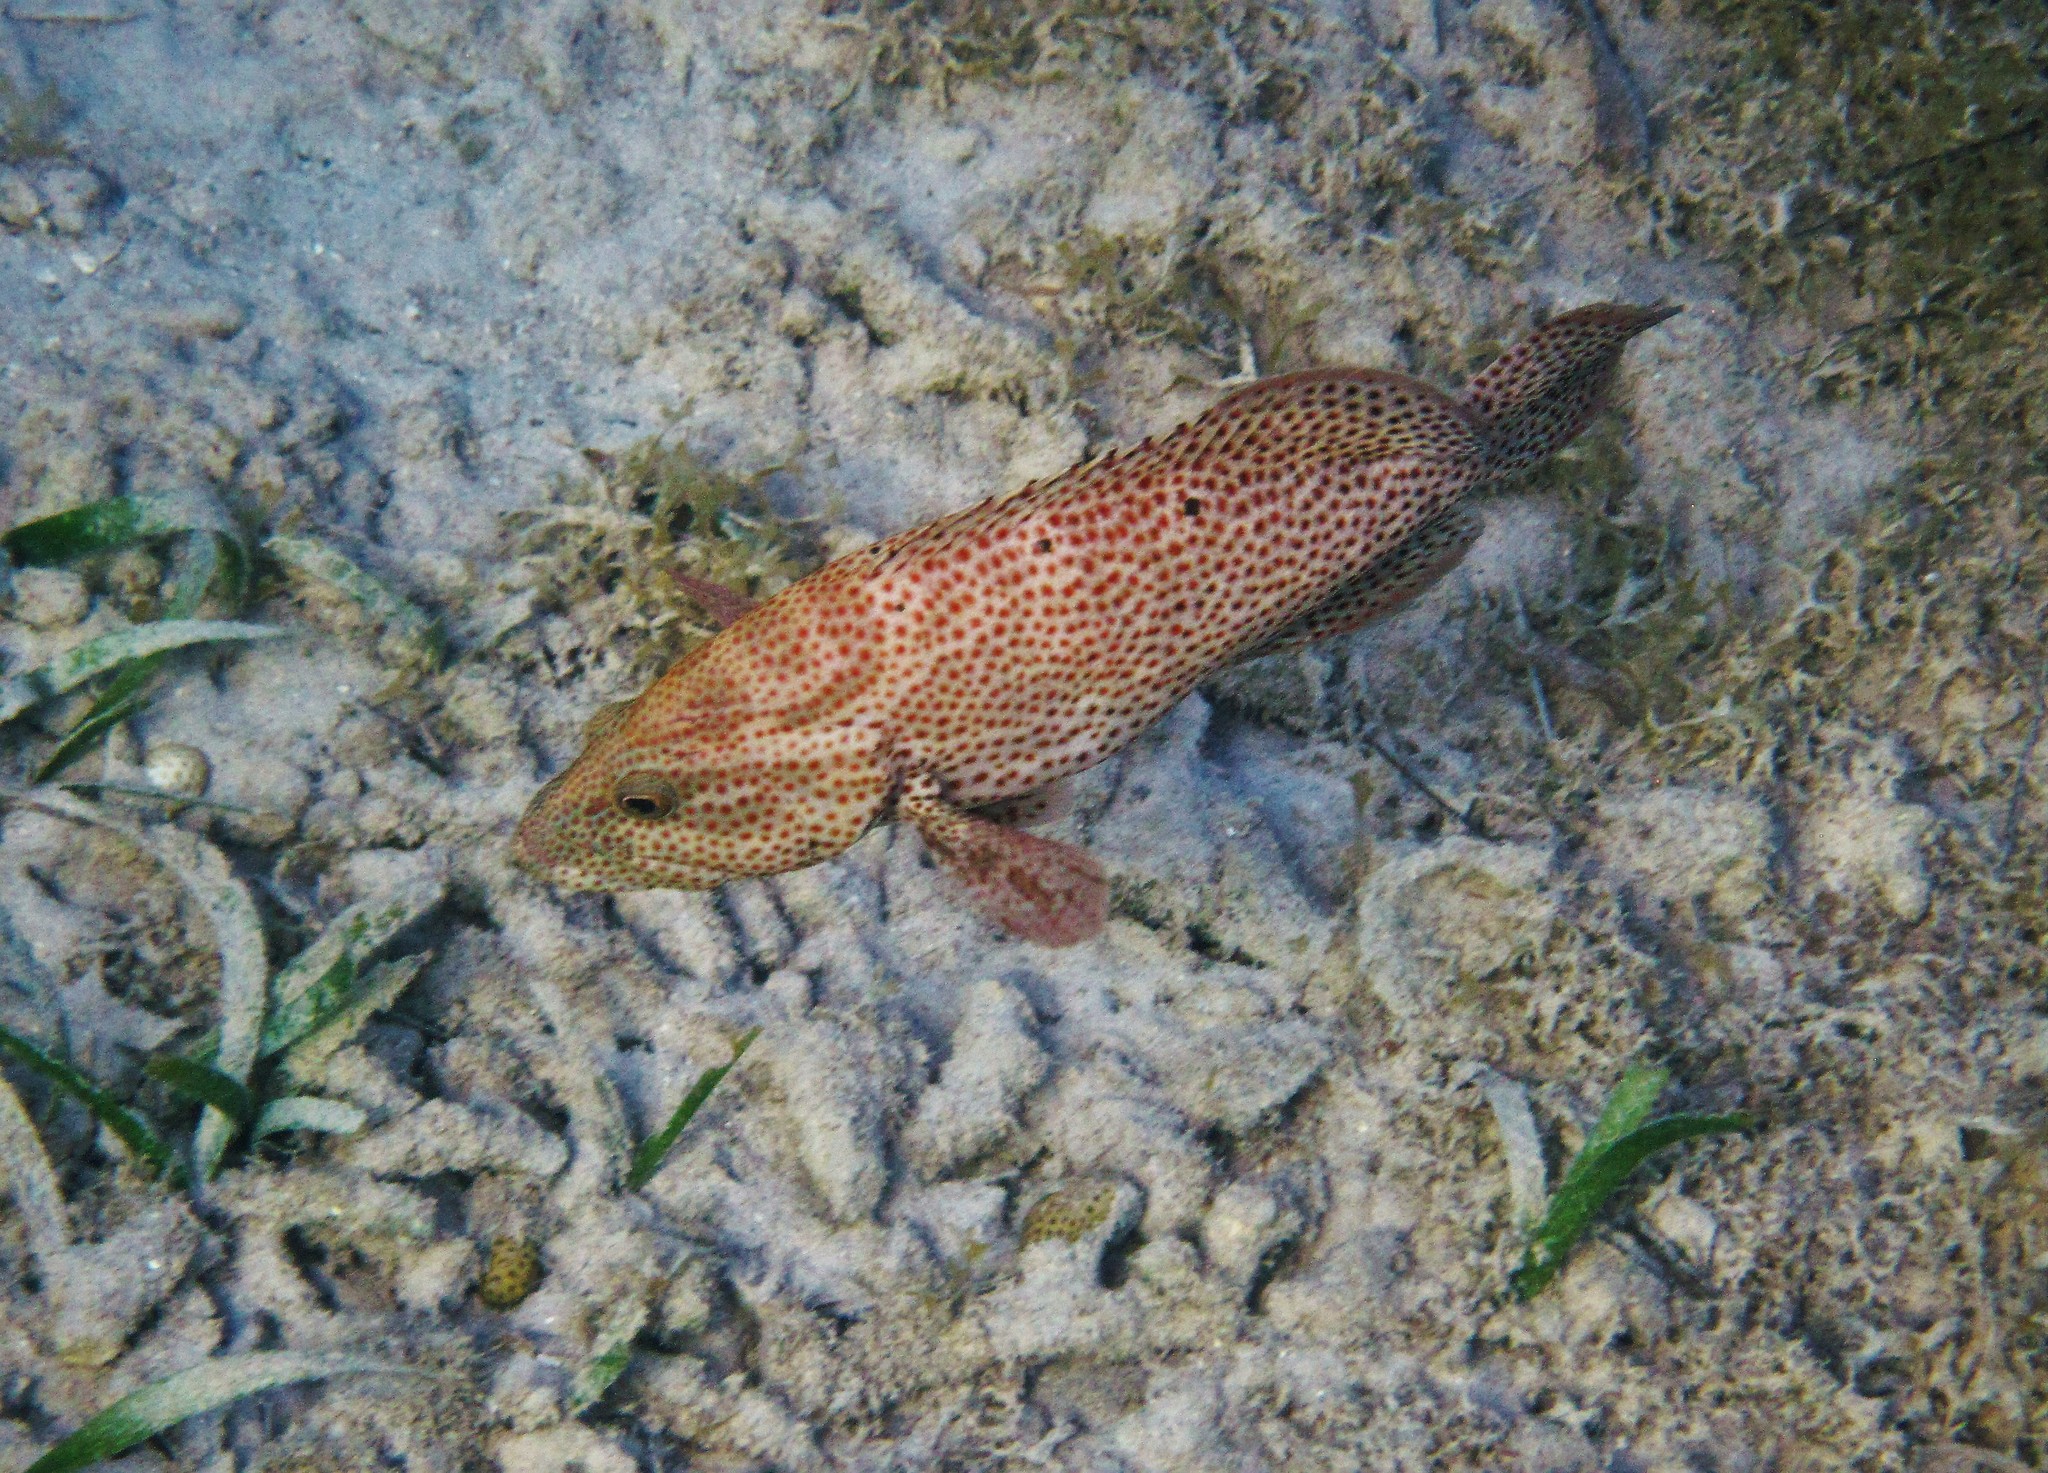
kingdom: Animalia
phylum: Chordata
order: Perciformes
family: Serranidae
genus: Cephalopholis
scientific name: Cephalopholis cruentata
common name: Graysby
